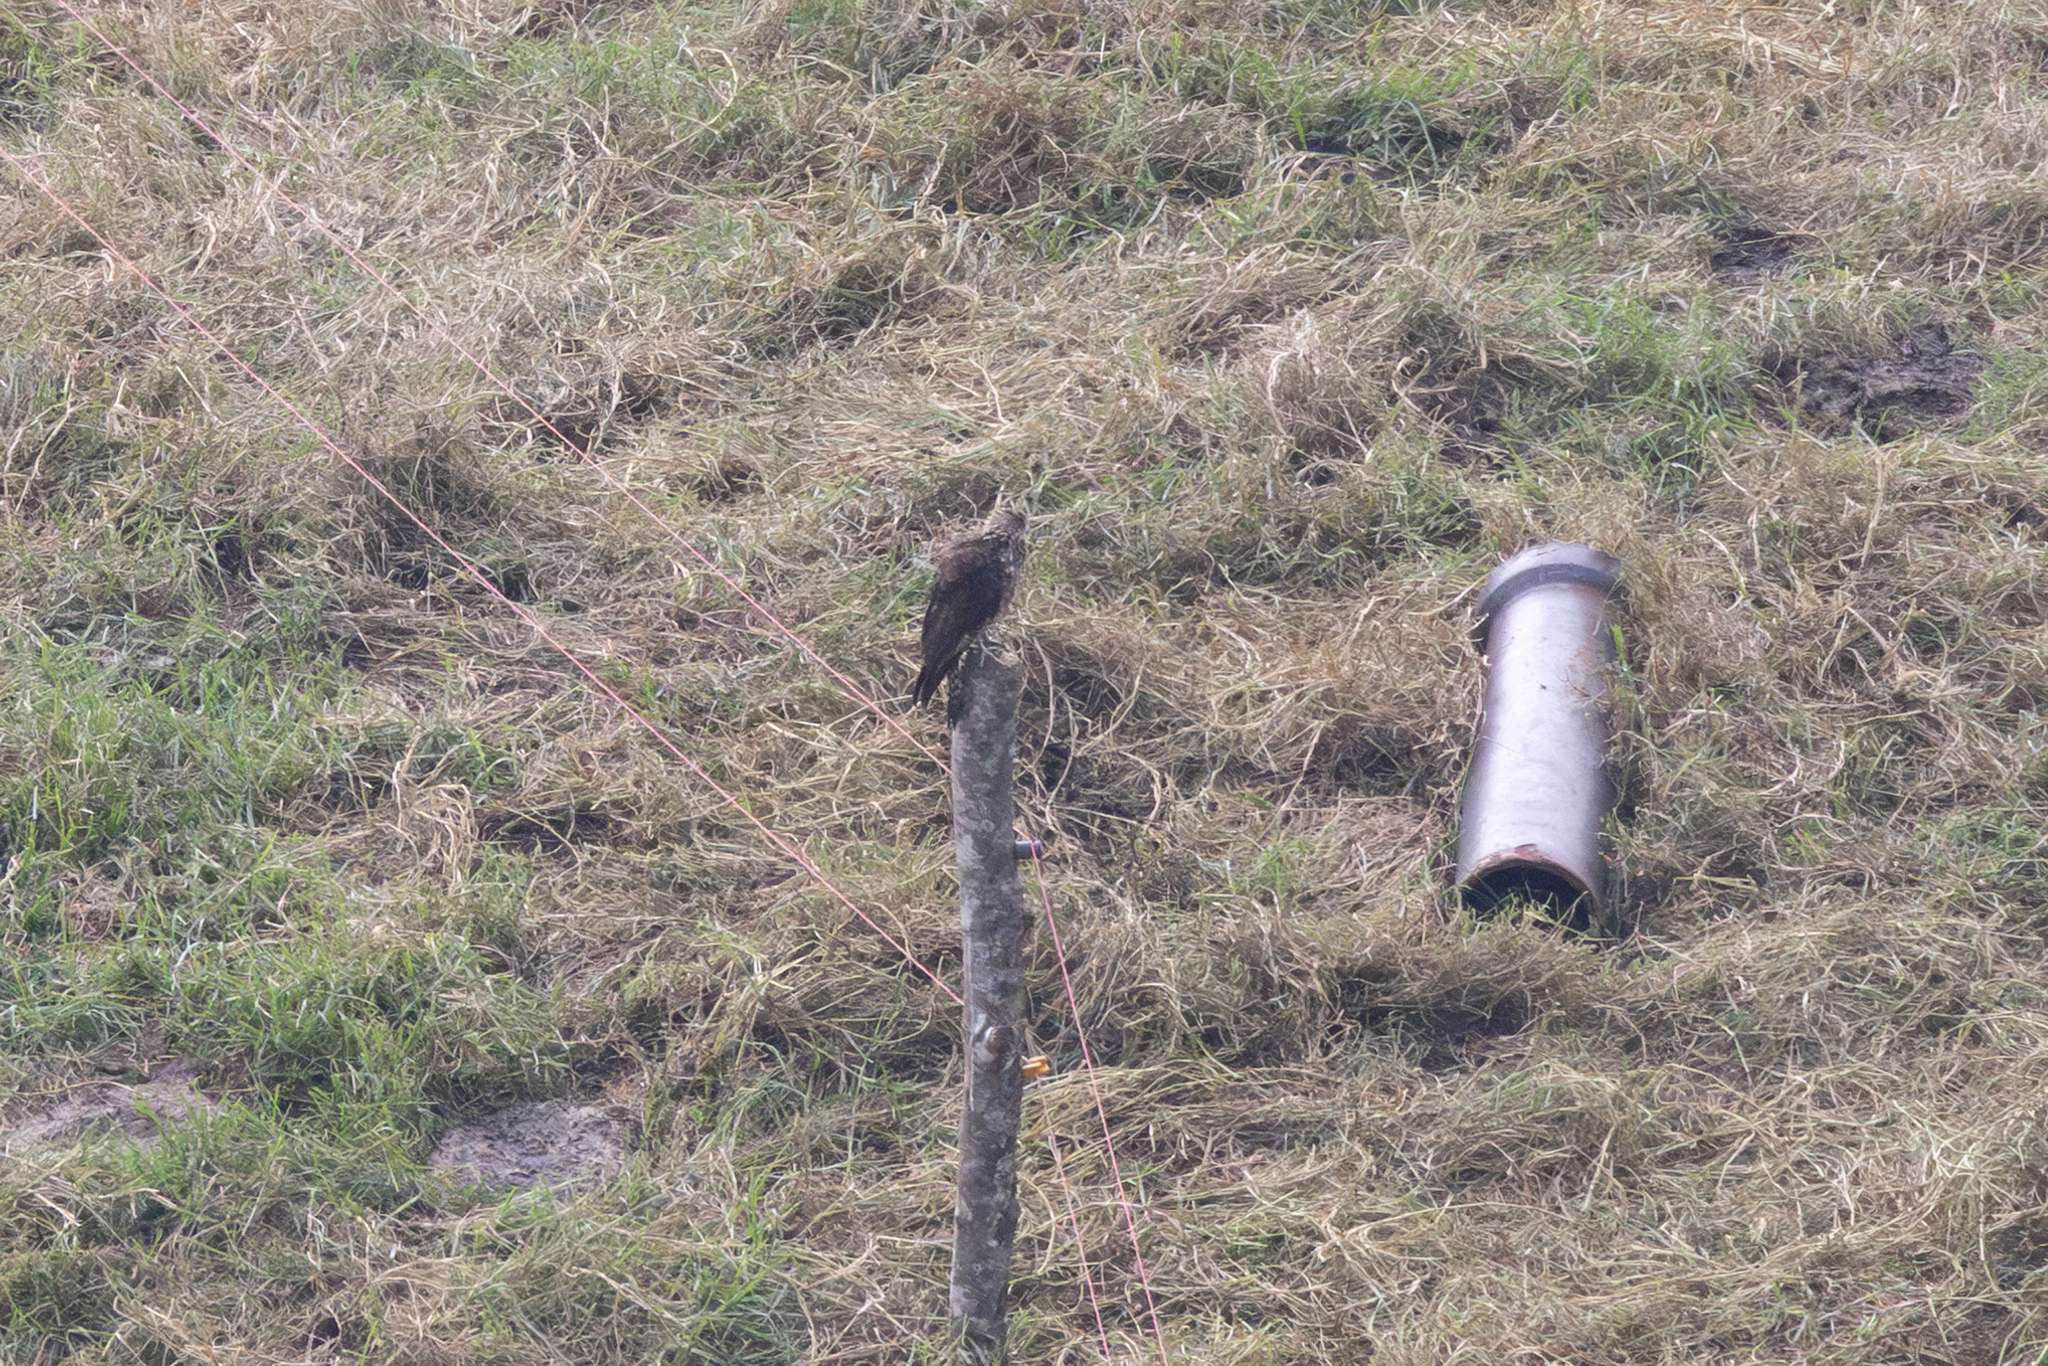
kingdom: Animalia
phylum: Chordata
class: Aves
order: Falconiformes
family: Falconidae
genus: Daptrius
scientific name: Daptrius
